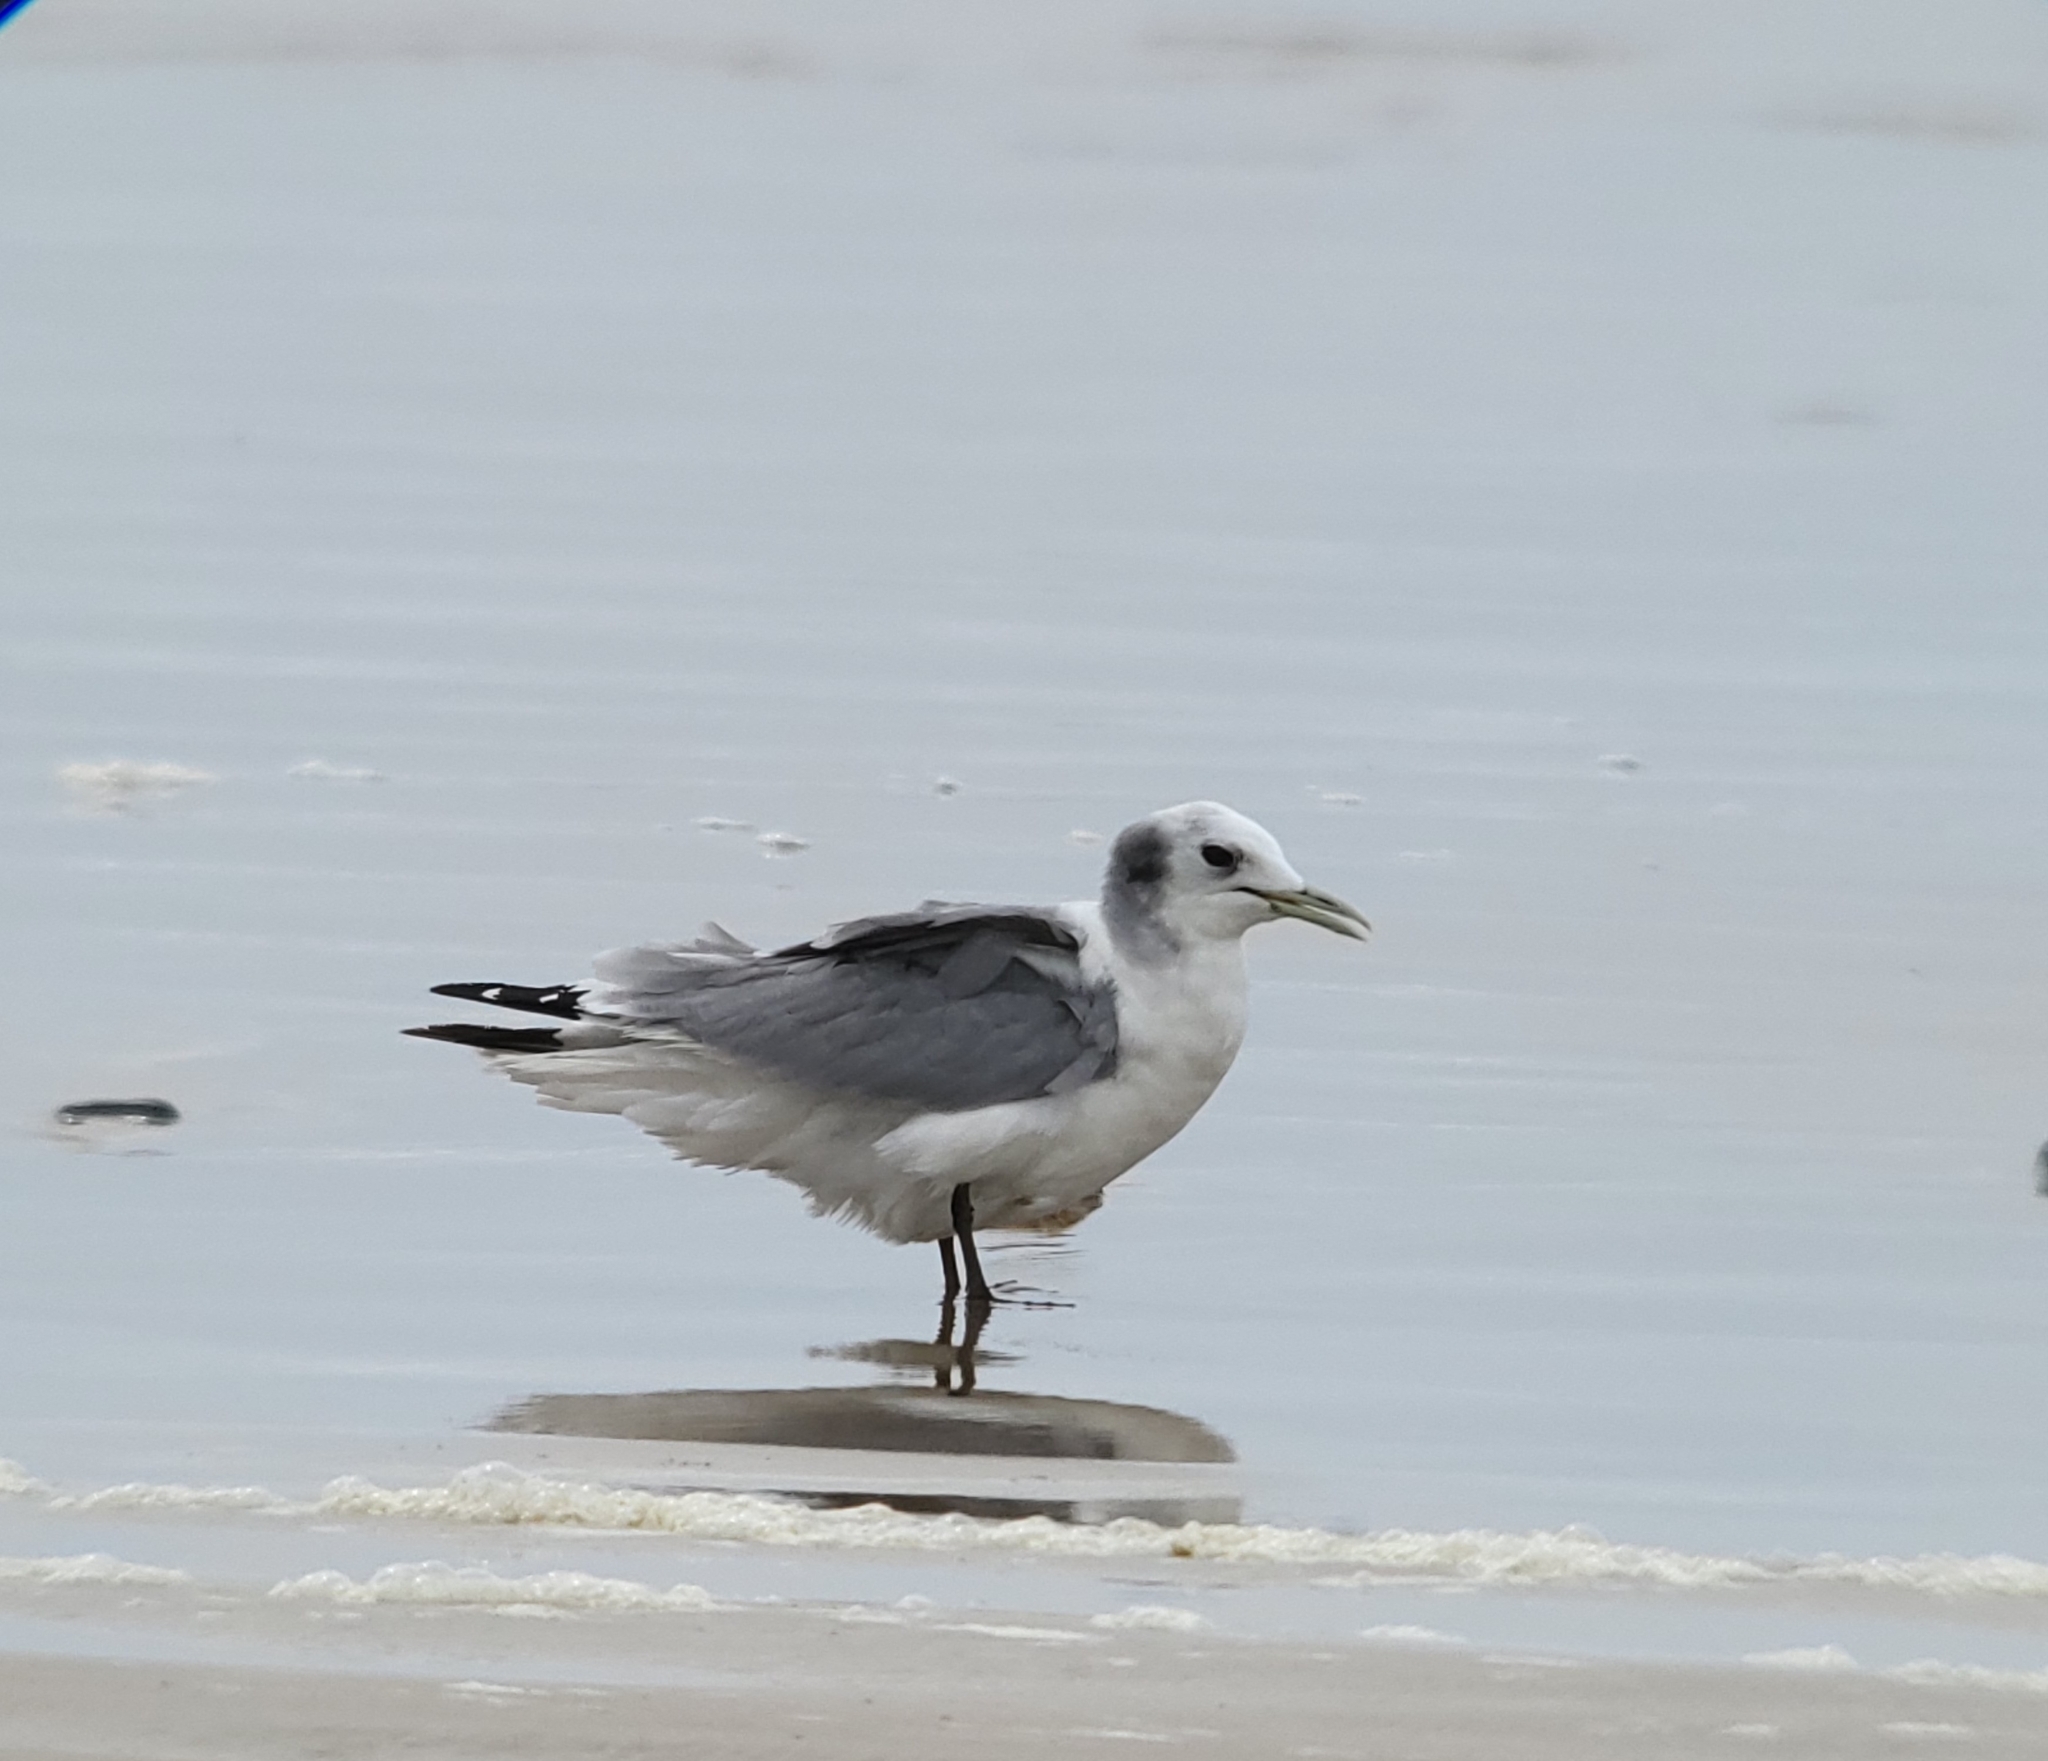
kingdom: Animalia
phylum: Chordata
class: Aves
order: Charadriiformes
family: Laridae
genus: Rissa
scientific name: Rissa tridactyla
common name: Black-legged kittiwake
